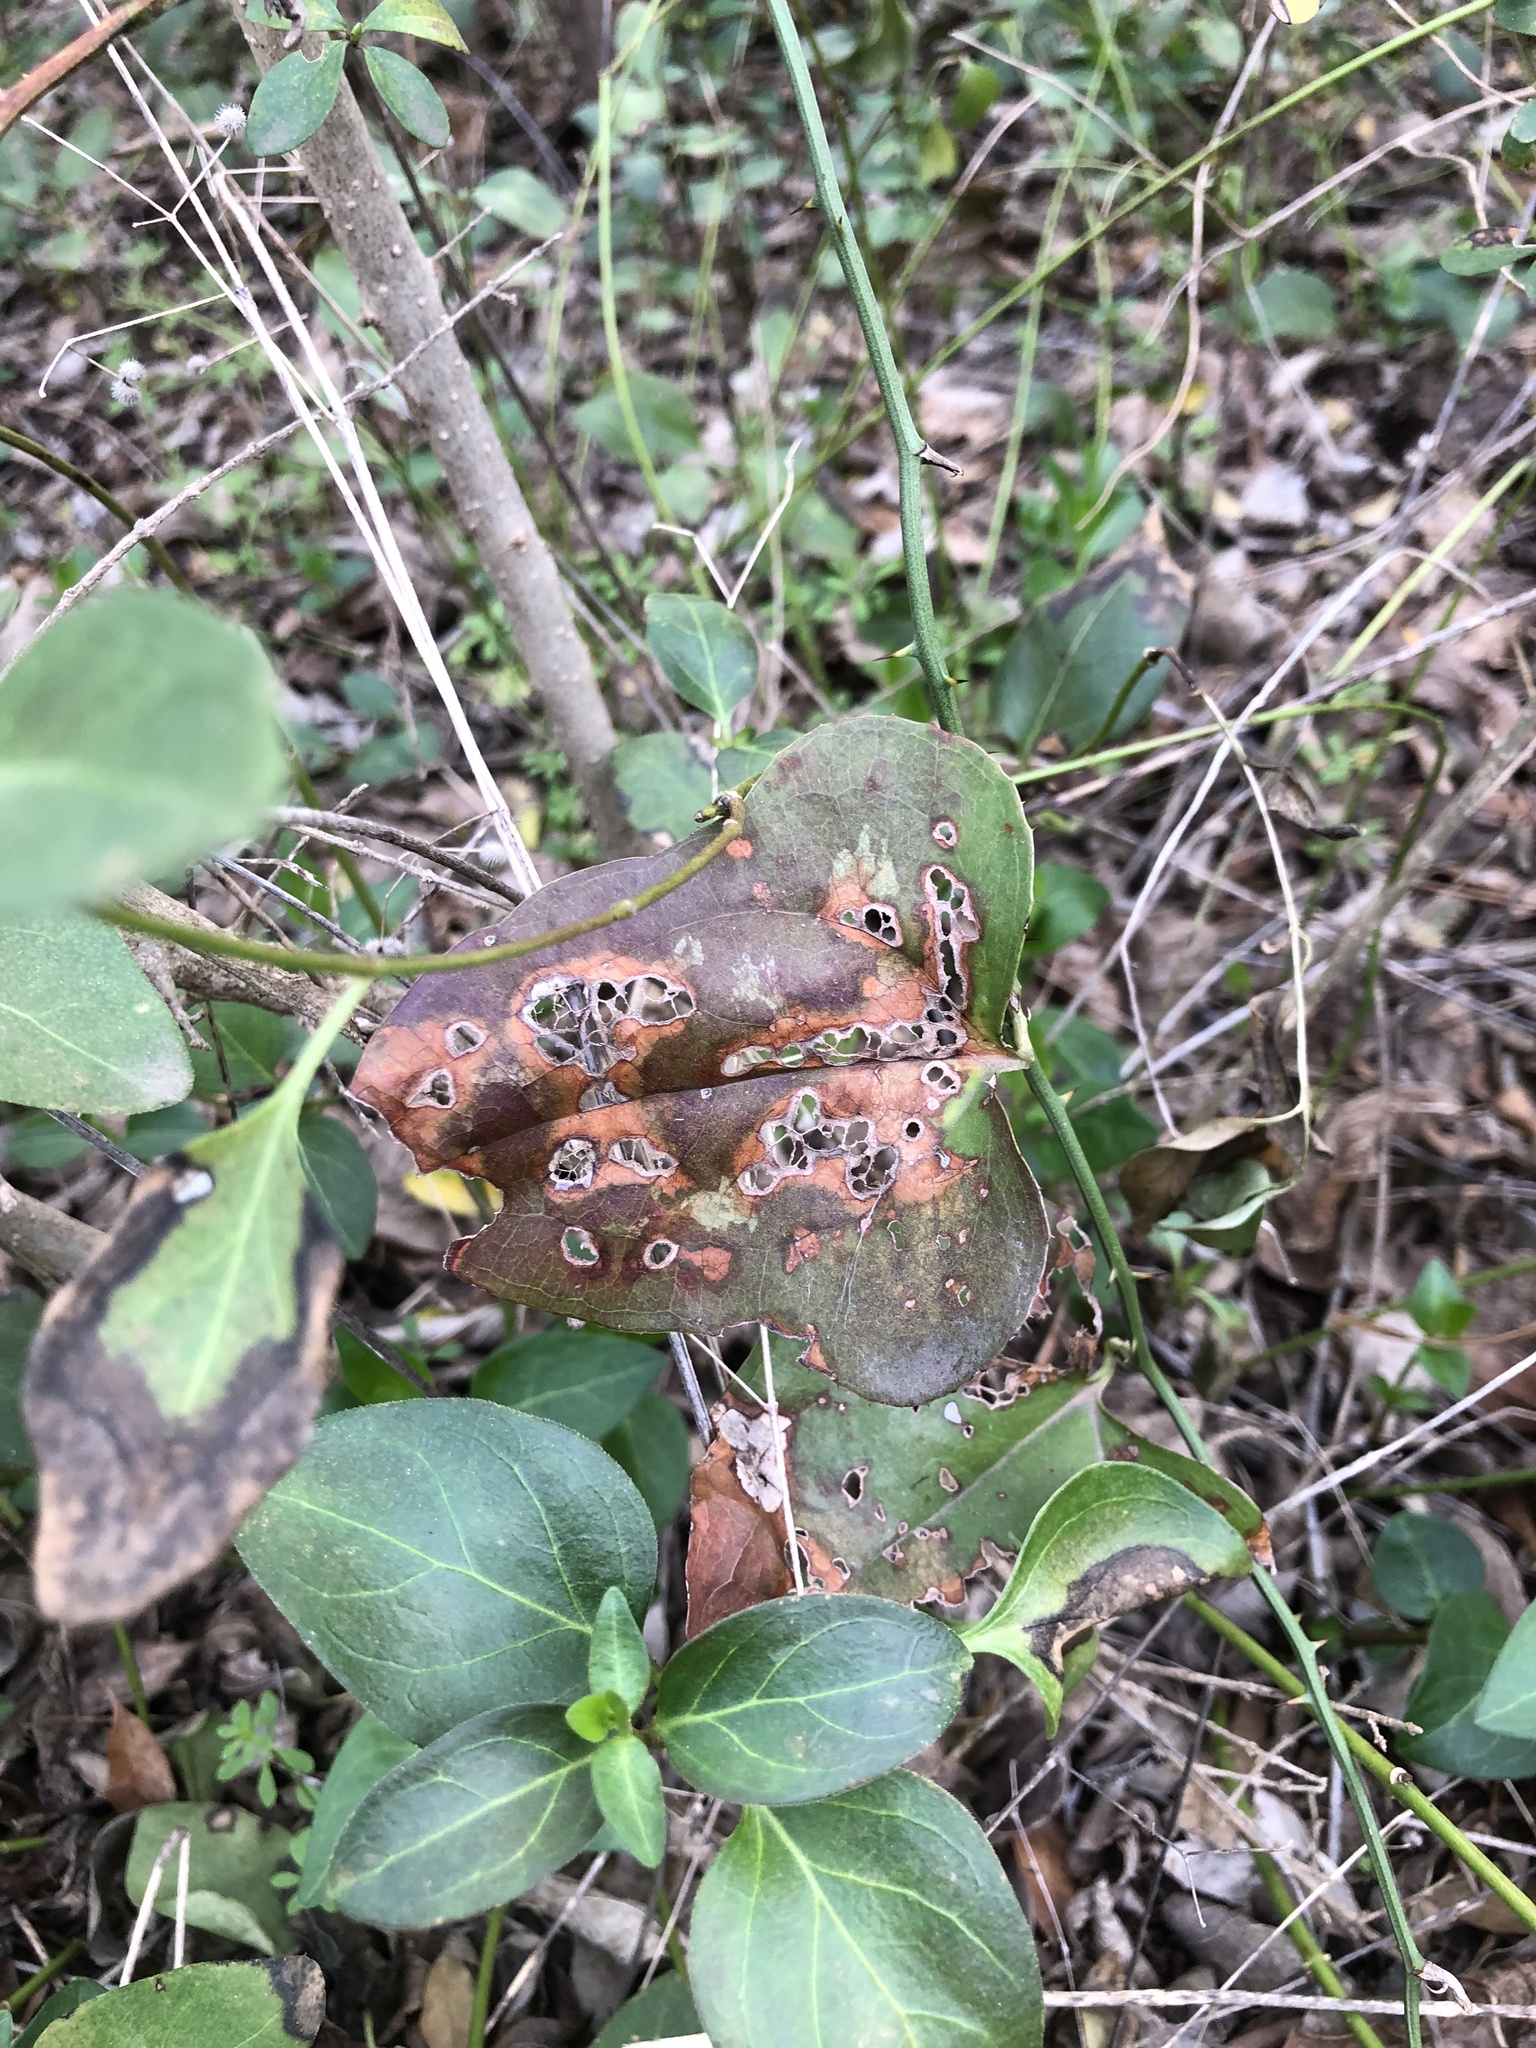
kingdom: Plantae
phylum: Tracheophyta
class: Liliopsida
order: Liliales
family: Smilacaceae
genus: Smilax
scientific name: Smilax bona-nox
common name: Catbrier
